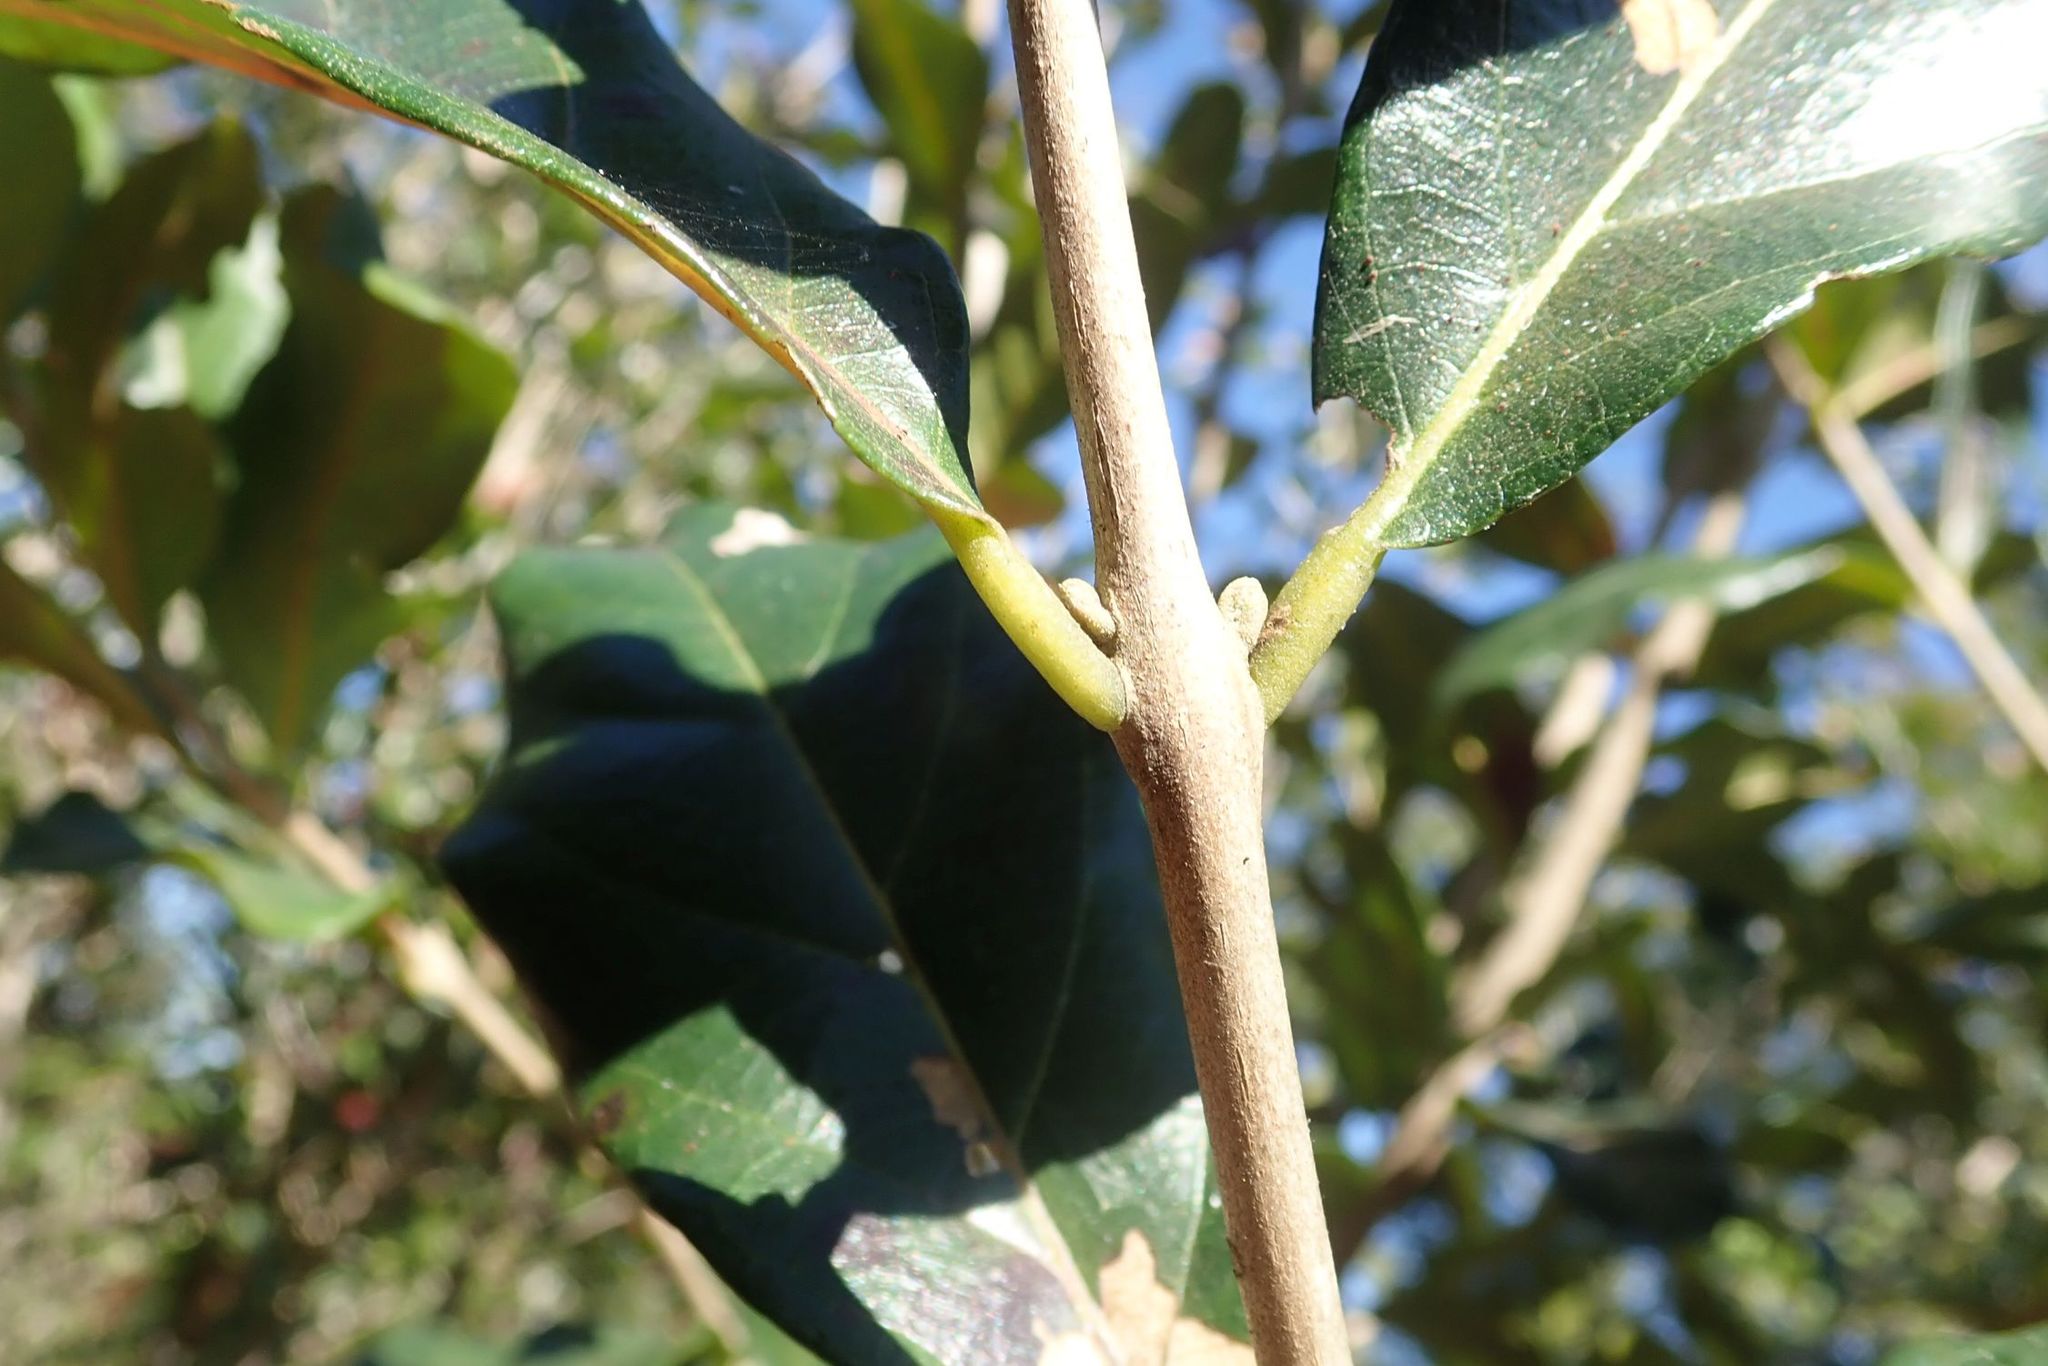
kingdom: Plantae
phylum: Tracheophyta
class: Magnoliopsida
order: Myrtales
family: Combretaceae
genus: Combretum
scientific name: Combretum kraussii
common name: Forest bushwillow
